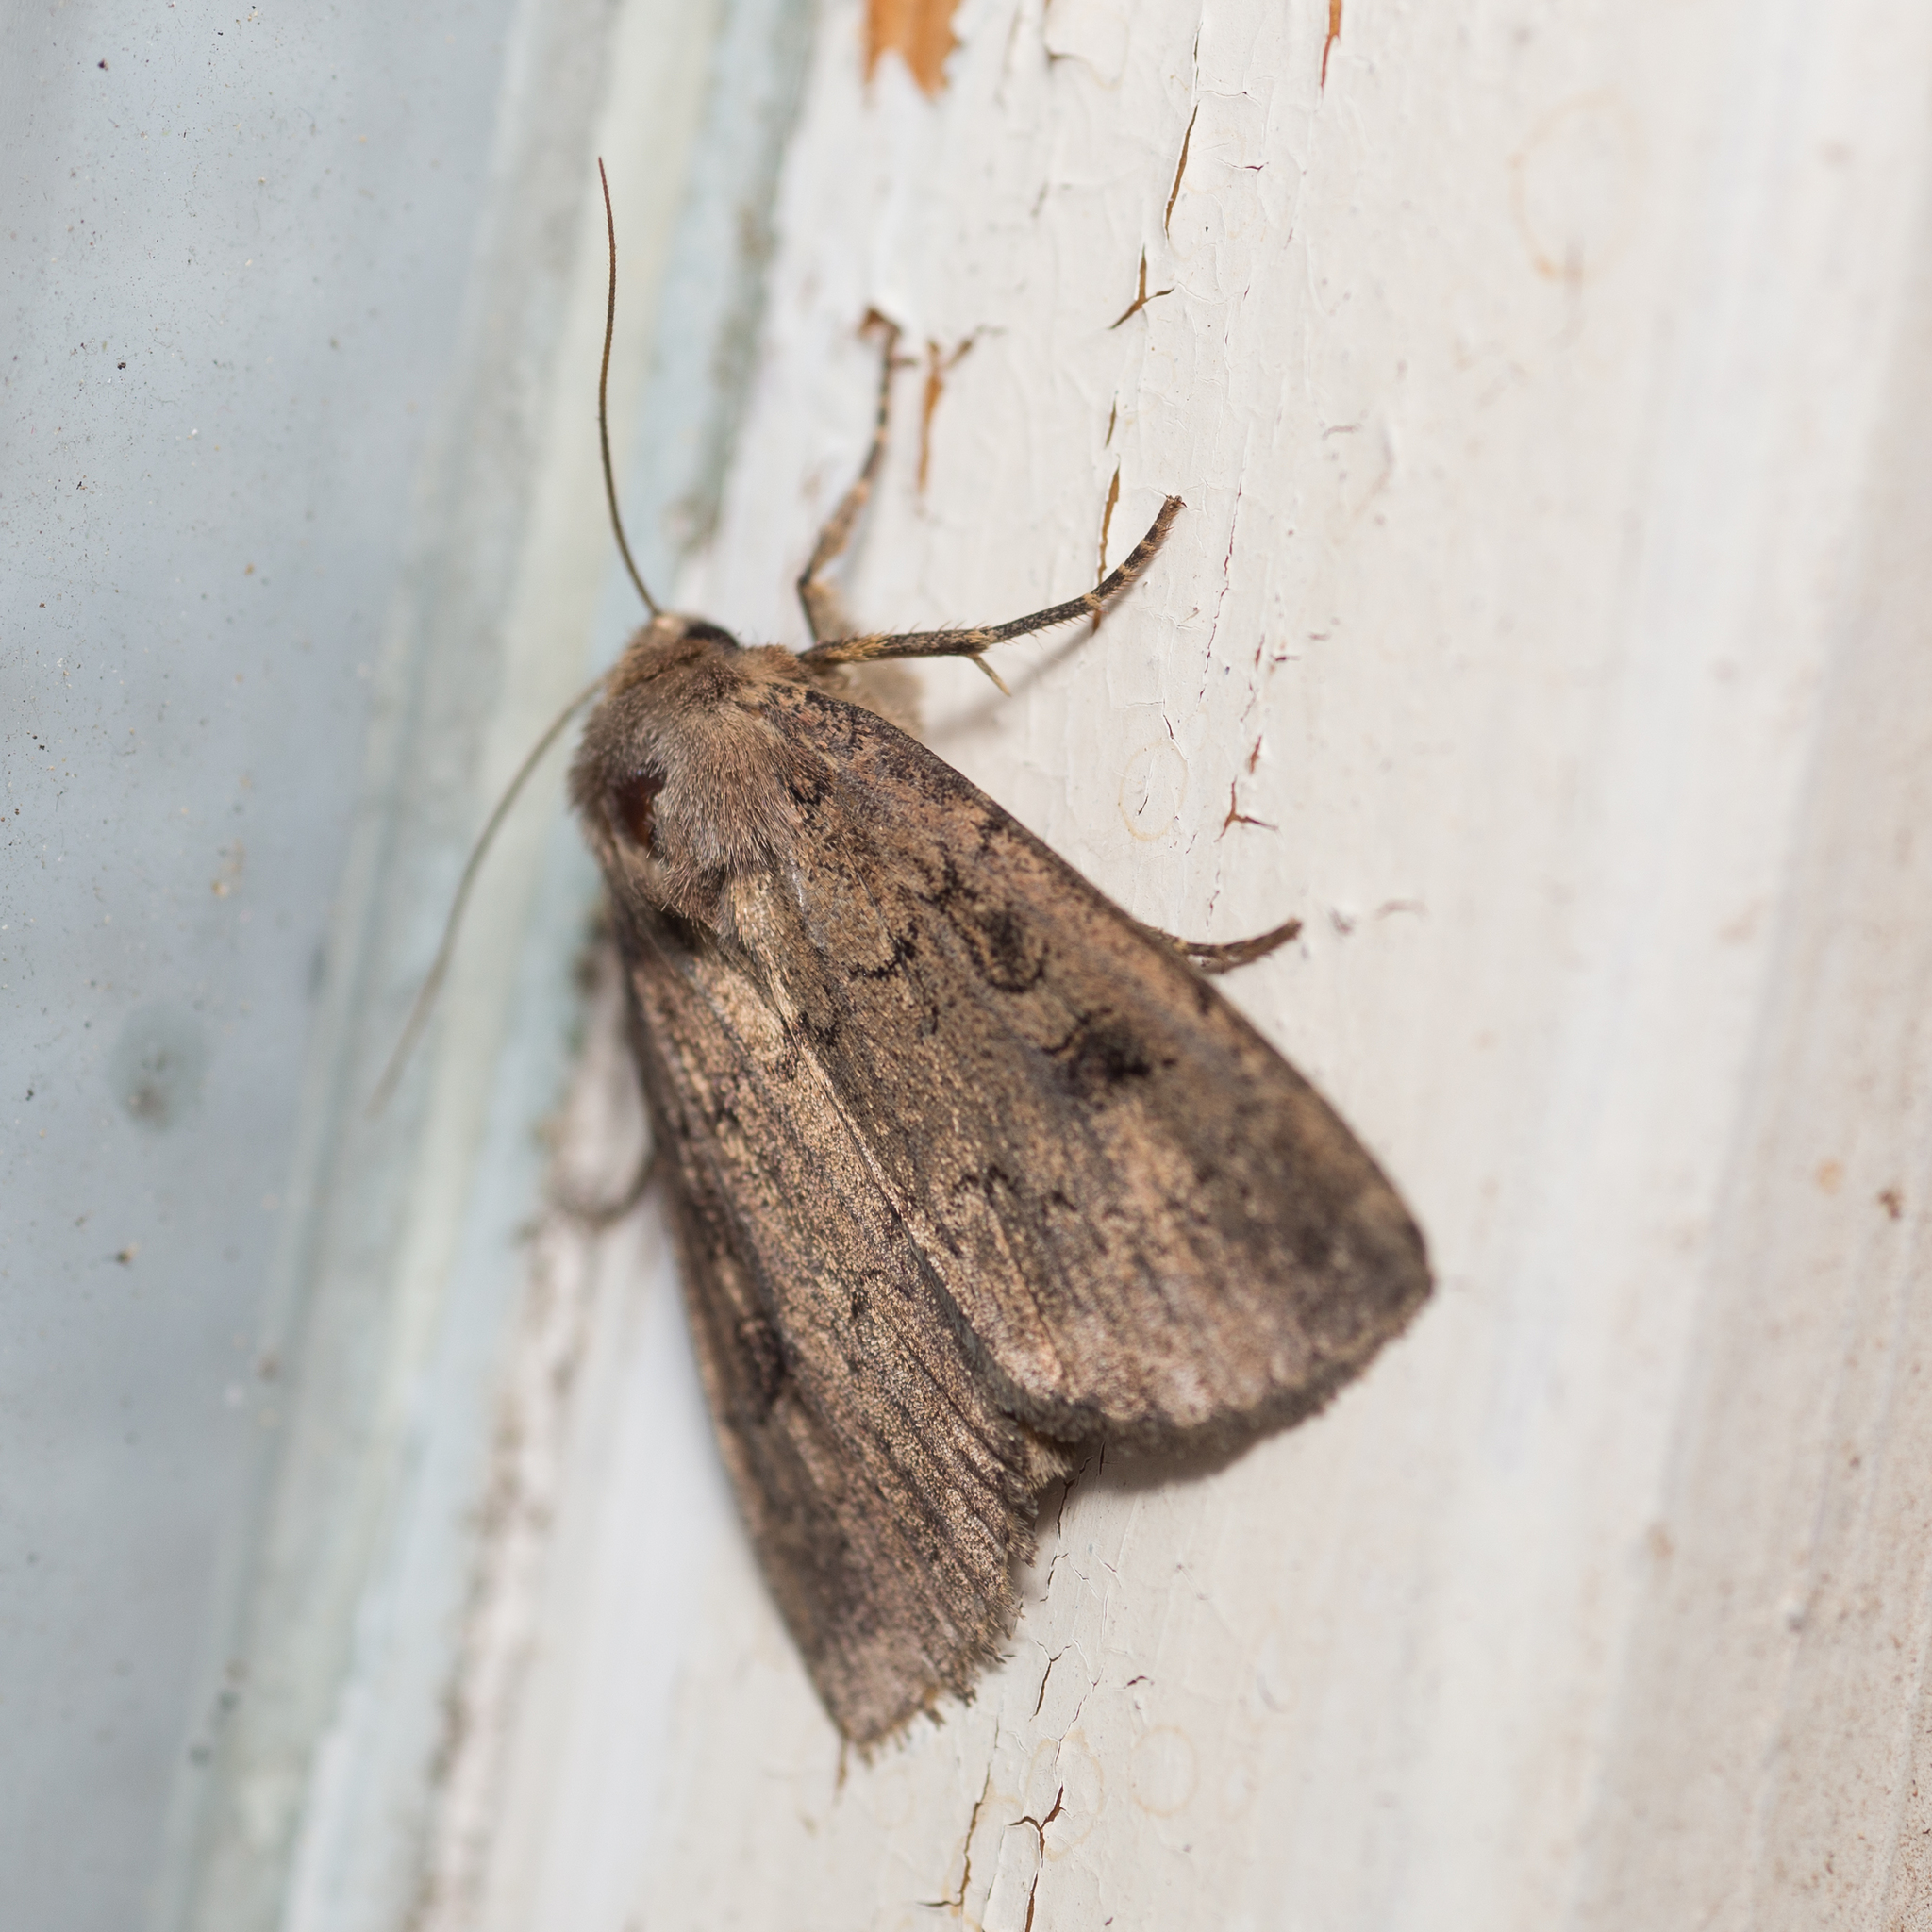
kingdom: Animalia
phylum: Arthropoda
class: Insecta
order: Lepidoptera
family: Noctuidae
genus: Graphiphora
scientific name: Graphiphora augur
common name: Double dart
